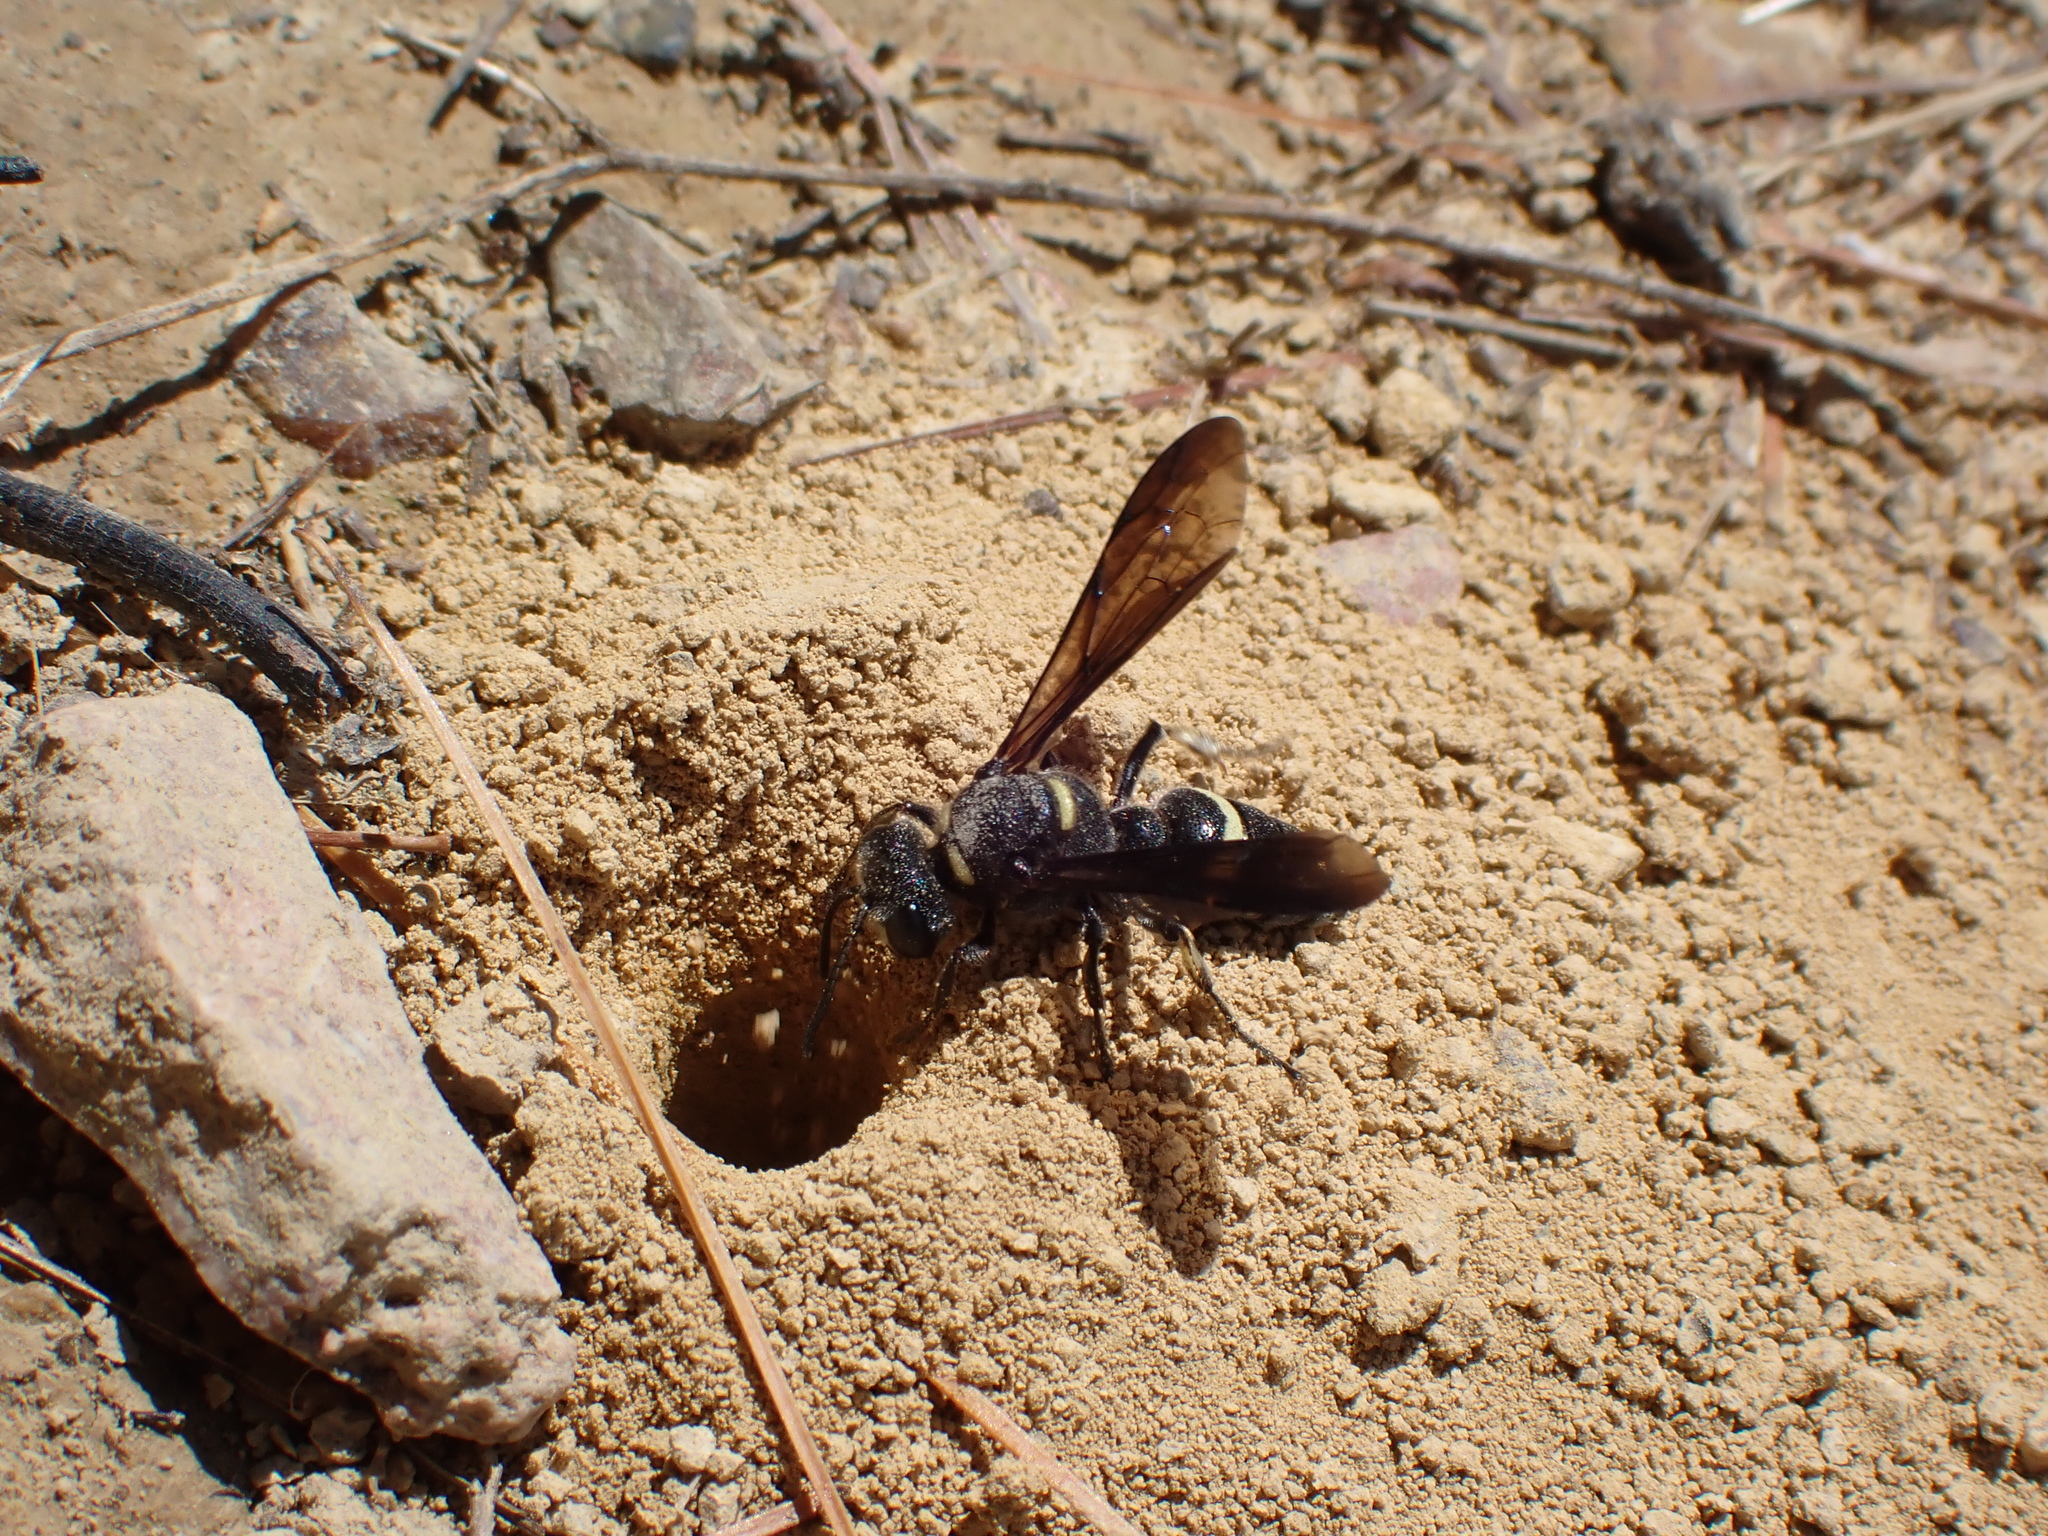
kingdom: Animalia
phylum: Arthropoda
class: Insecta
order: Hymenoptera
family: Crabronidae
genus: Cerceris
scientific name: Cerceris fumipennis
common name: Smokey-winged beetle bandit wasp
